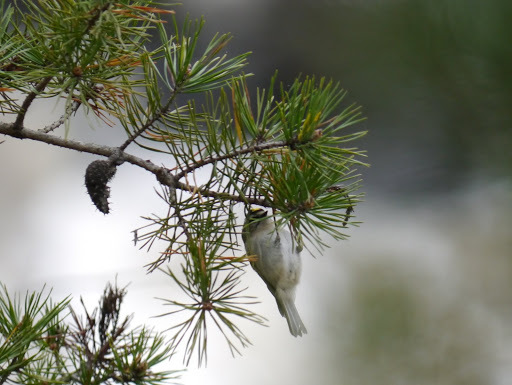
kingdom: Animalia
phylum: Chordata
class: Aves
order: Passeriformes
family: Regulidae
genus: Regulus
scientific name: Regulus satrapa
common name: Golden-crowned kinglet
